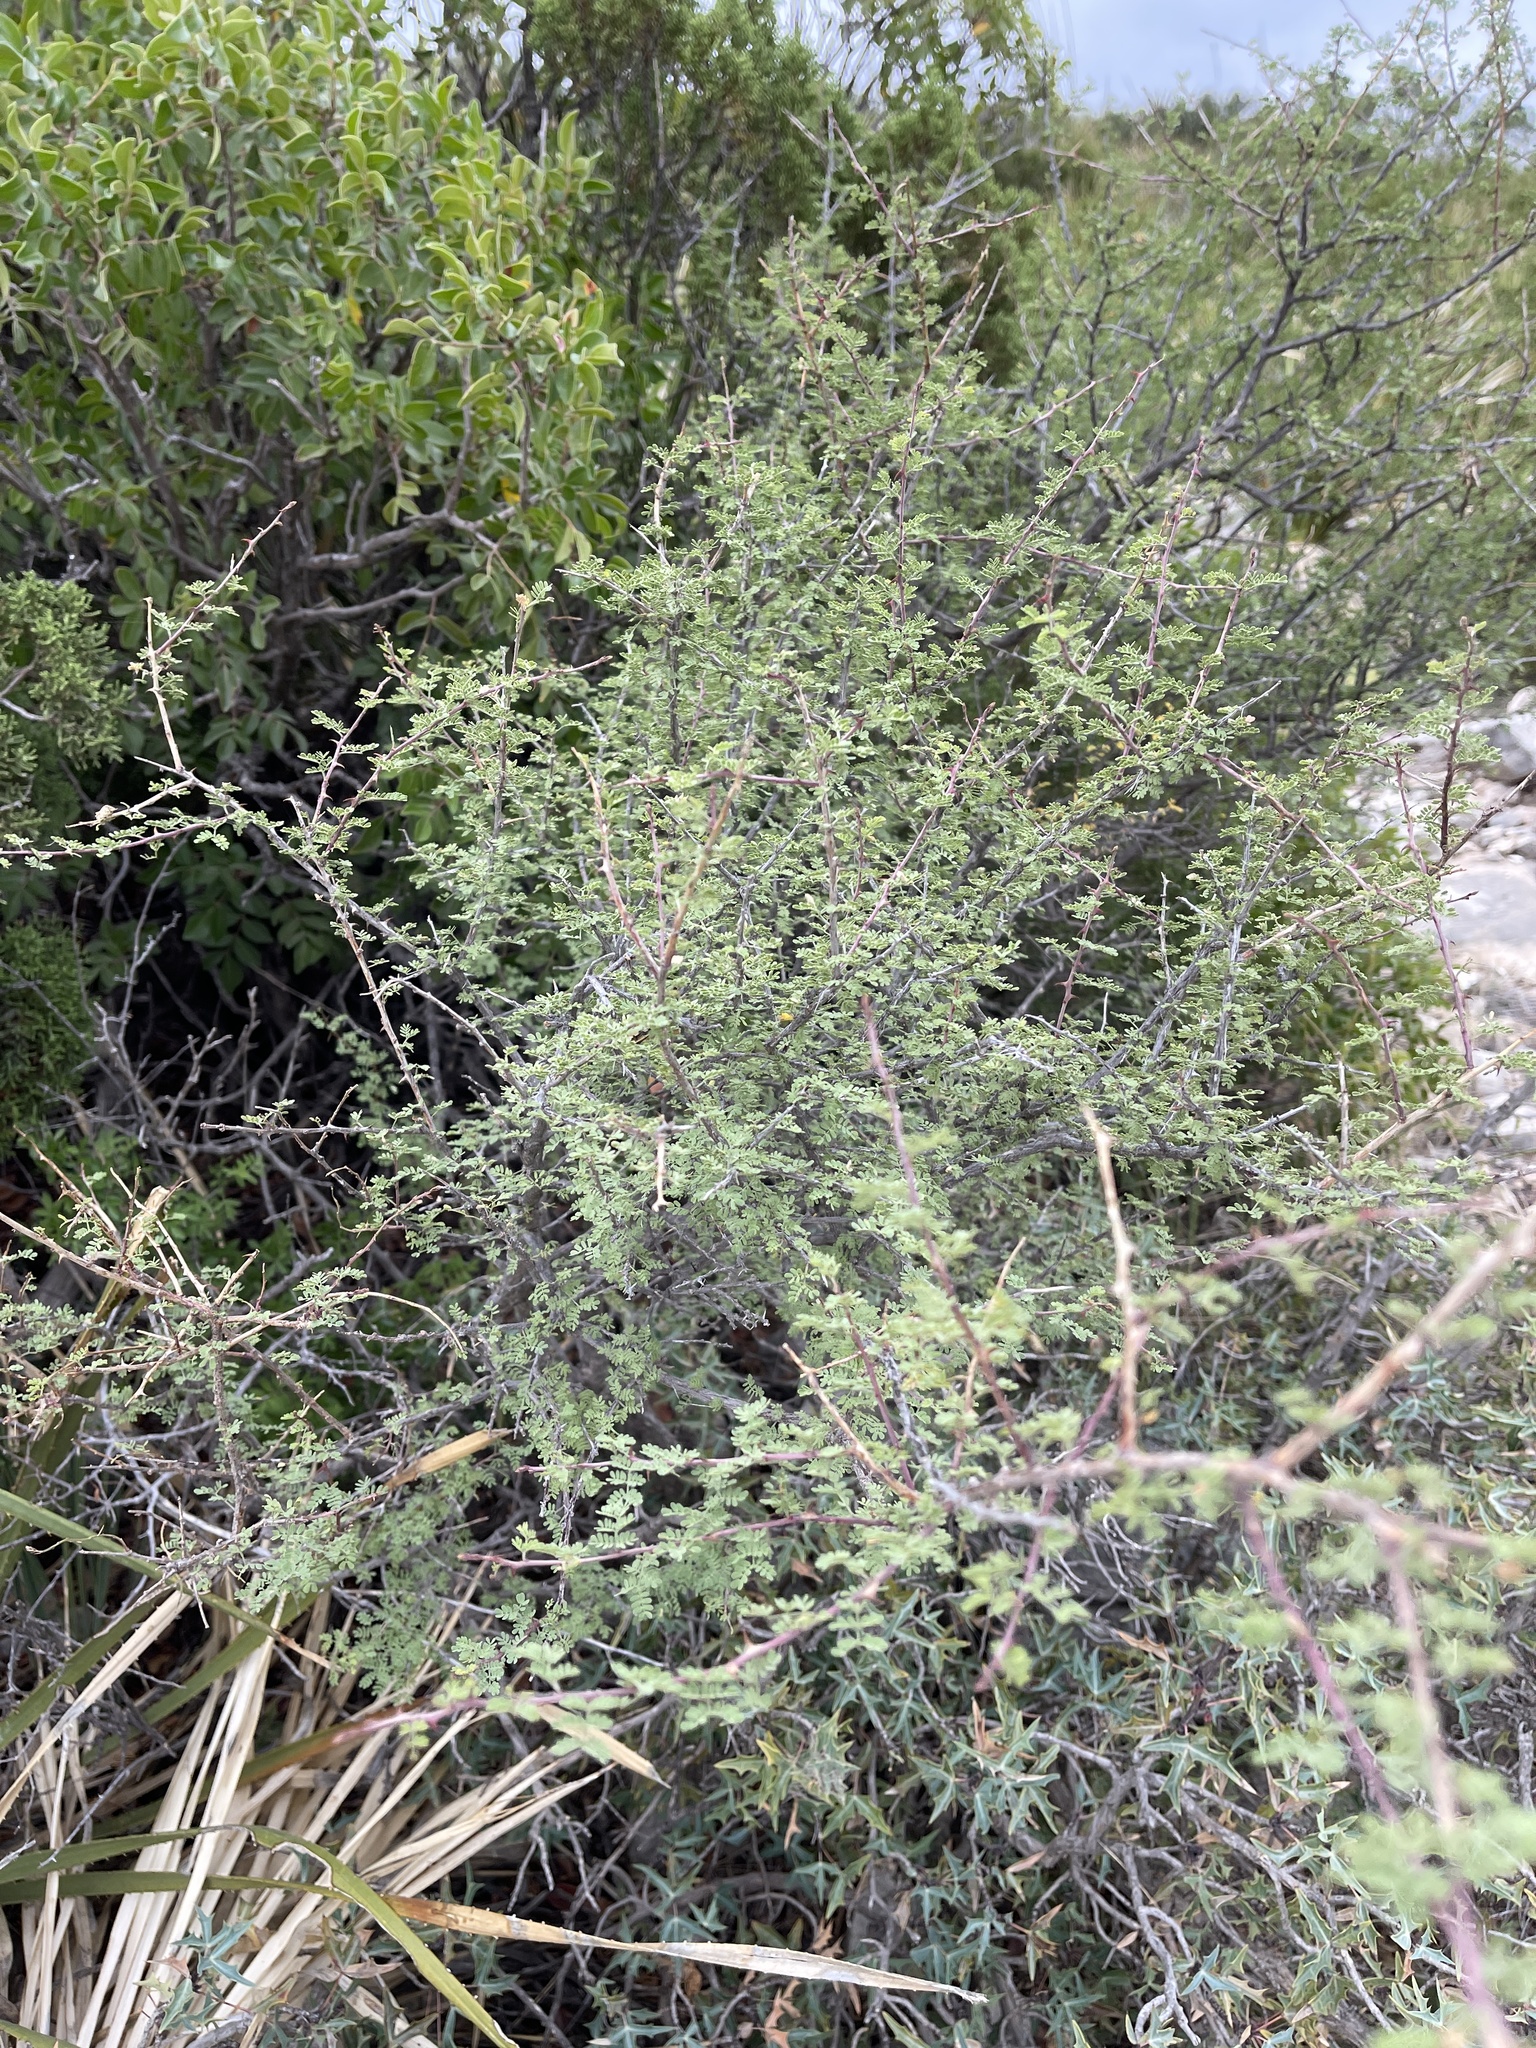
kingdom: Plantae
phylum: Tracheophyta
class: Magnoliopsida
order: Fabales
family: Fabaceae
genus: Mimosa
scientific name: Mimosa texana
